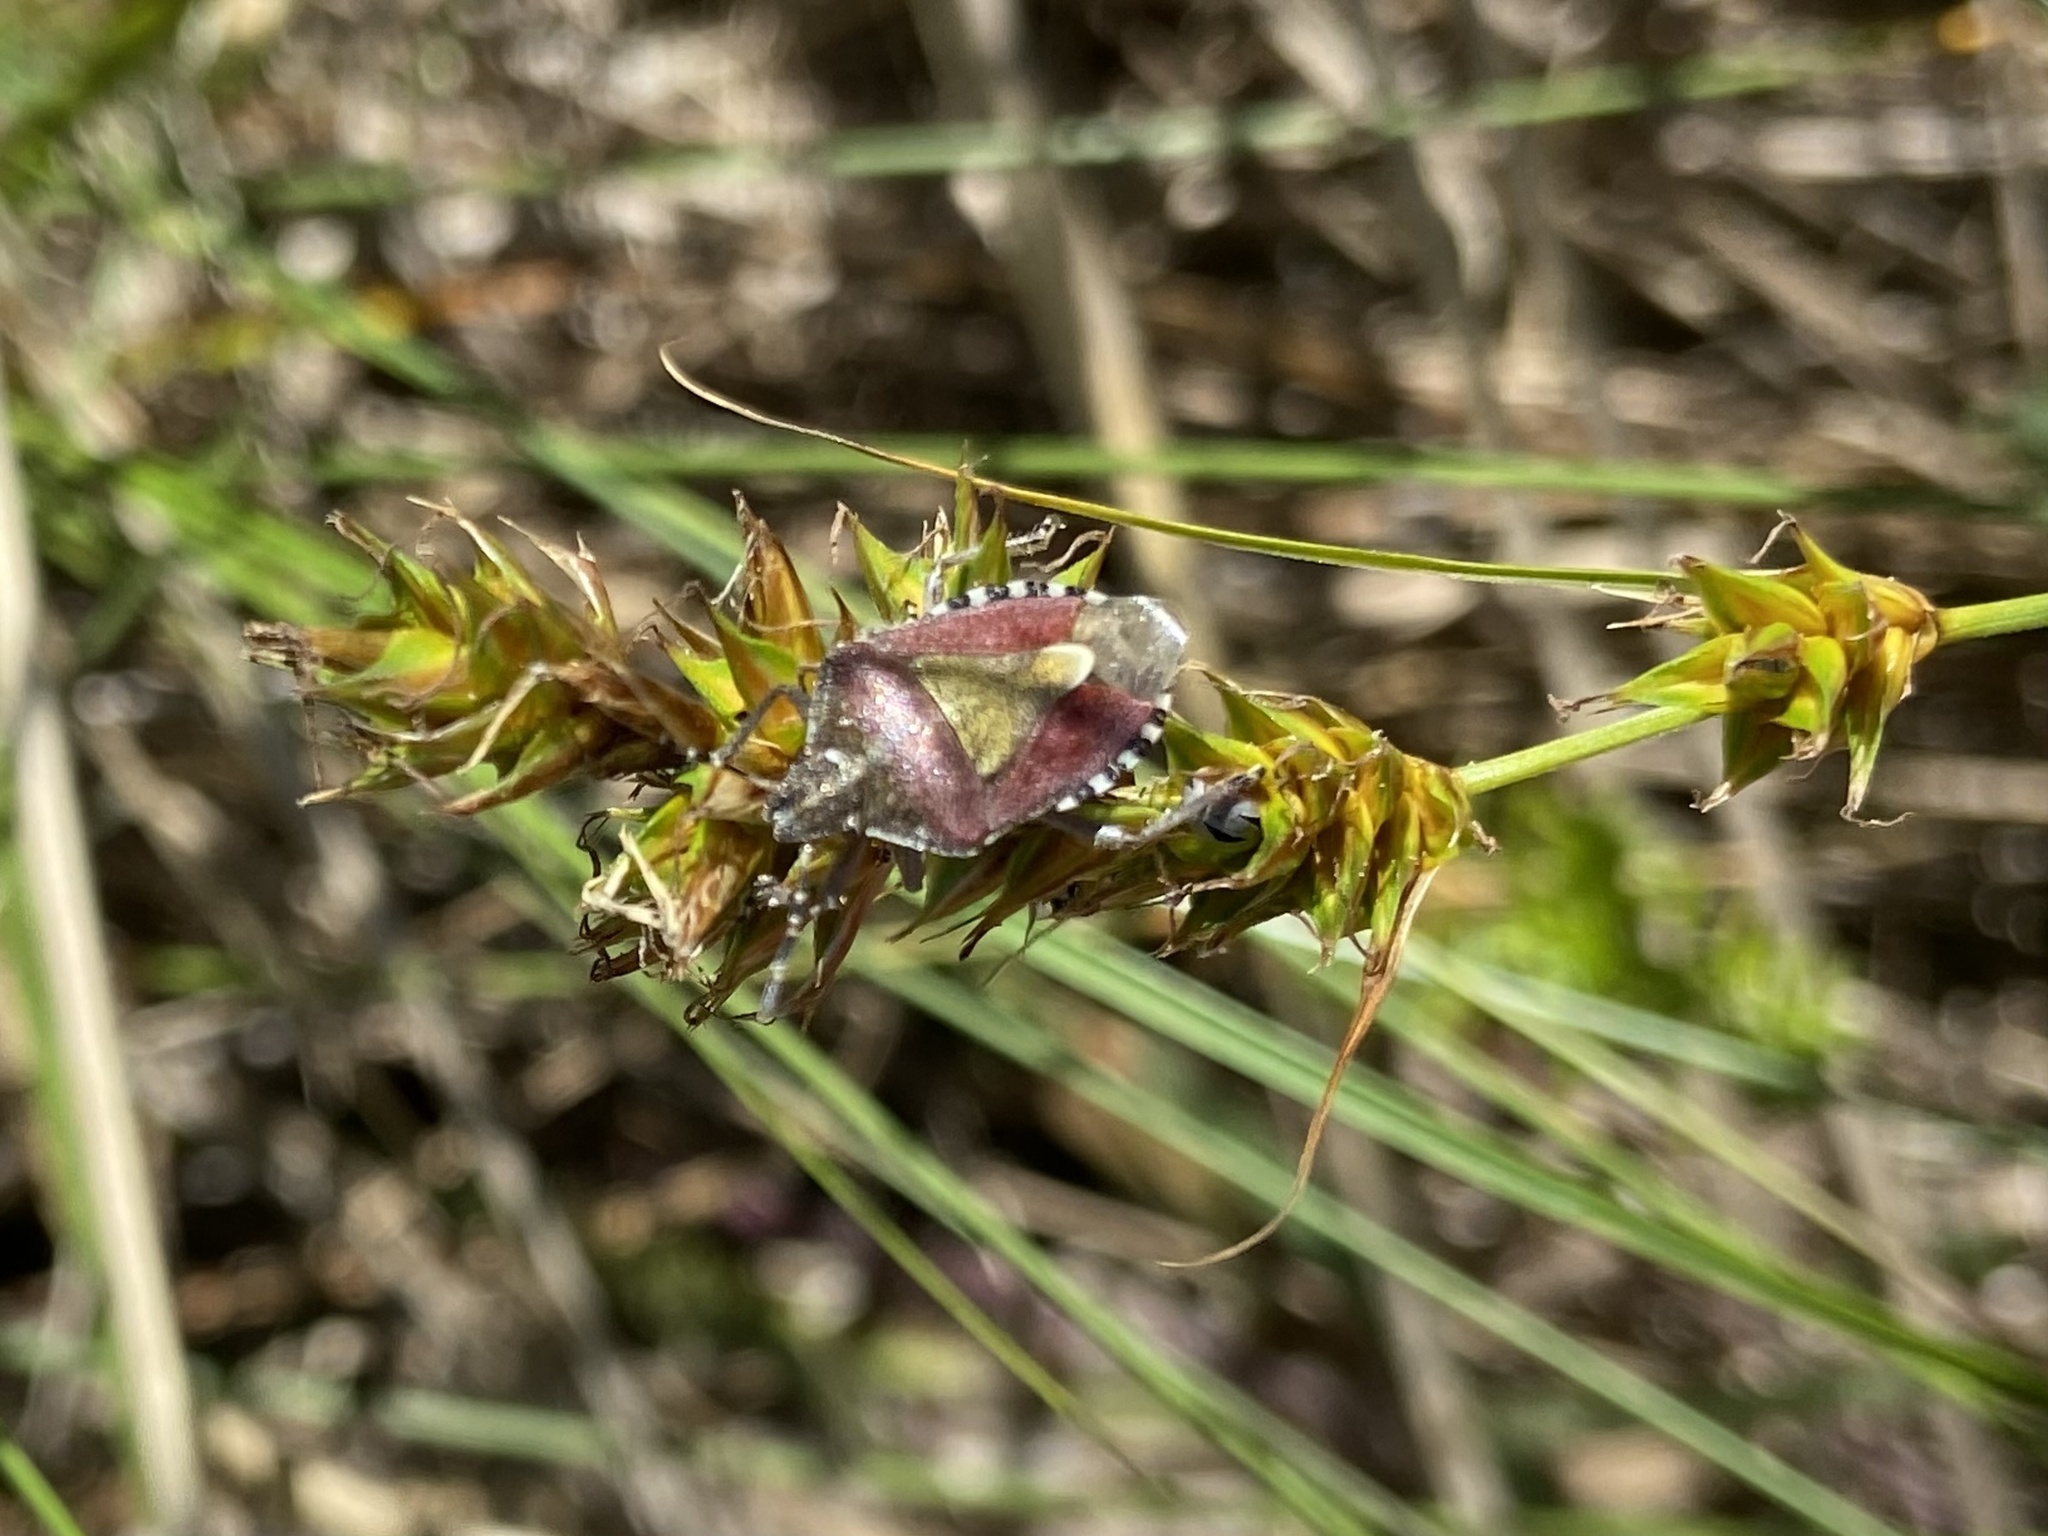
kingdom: Animalia
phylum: Arthropoda
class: Insecta
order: Hemiptera
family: Pentatomidae
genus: Dolycoris
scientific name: Dolycoris baccarum
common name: Sloe bug
